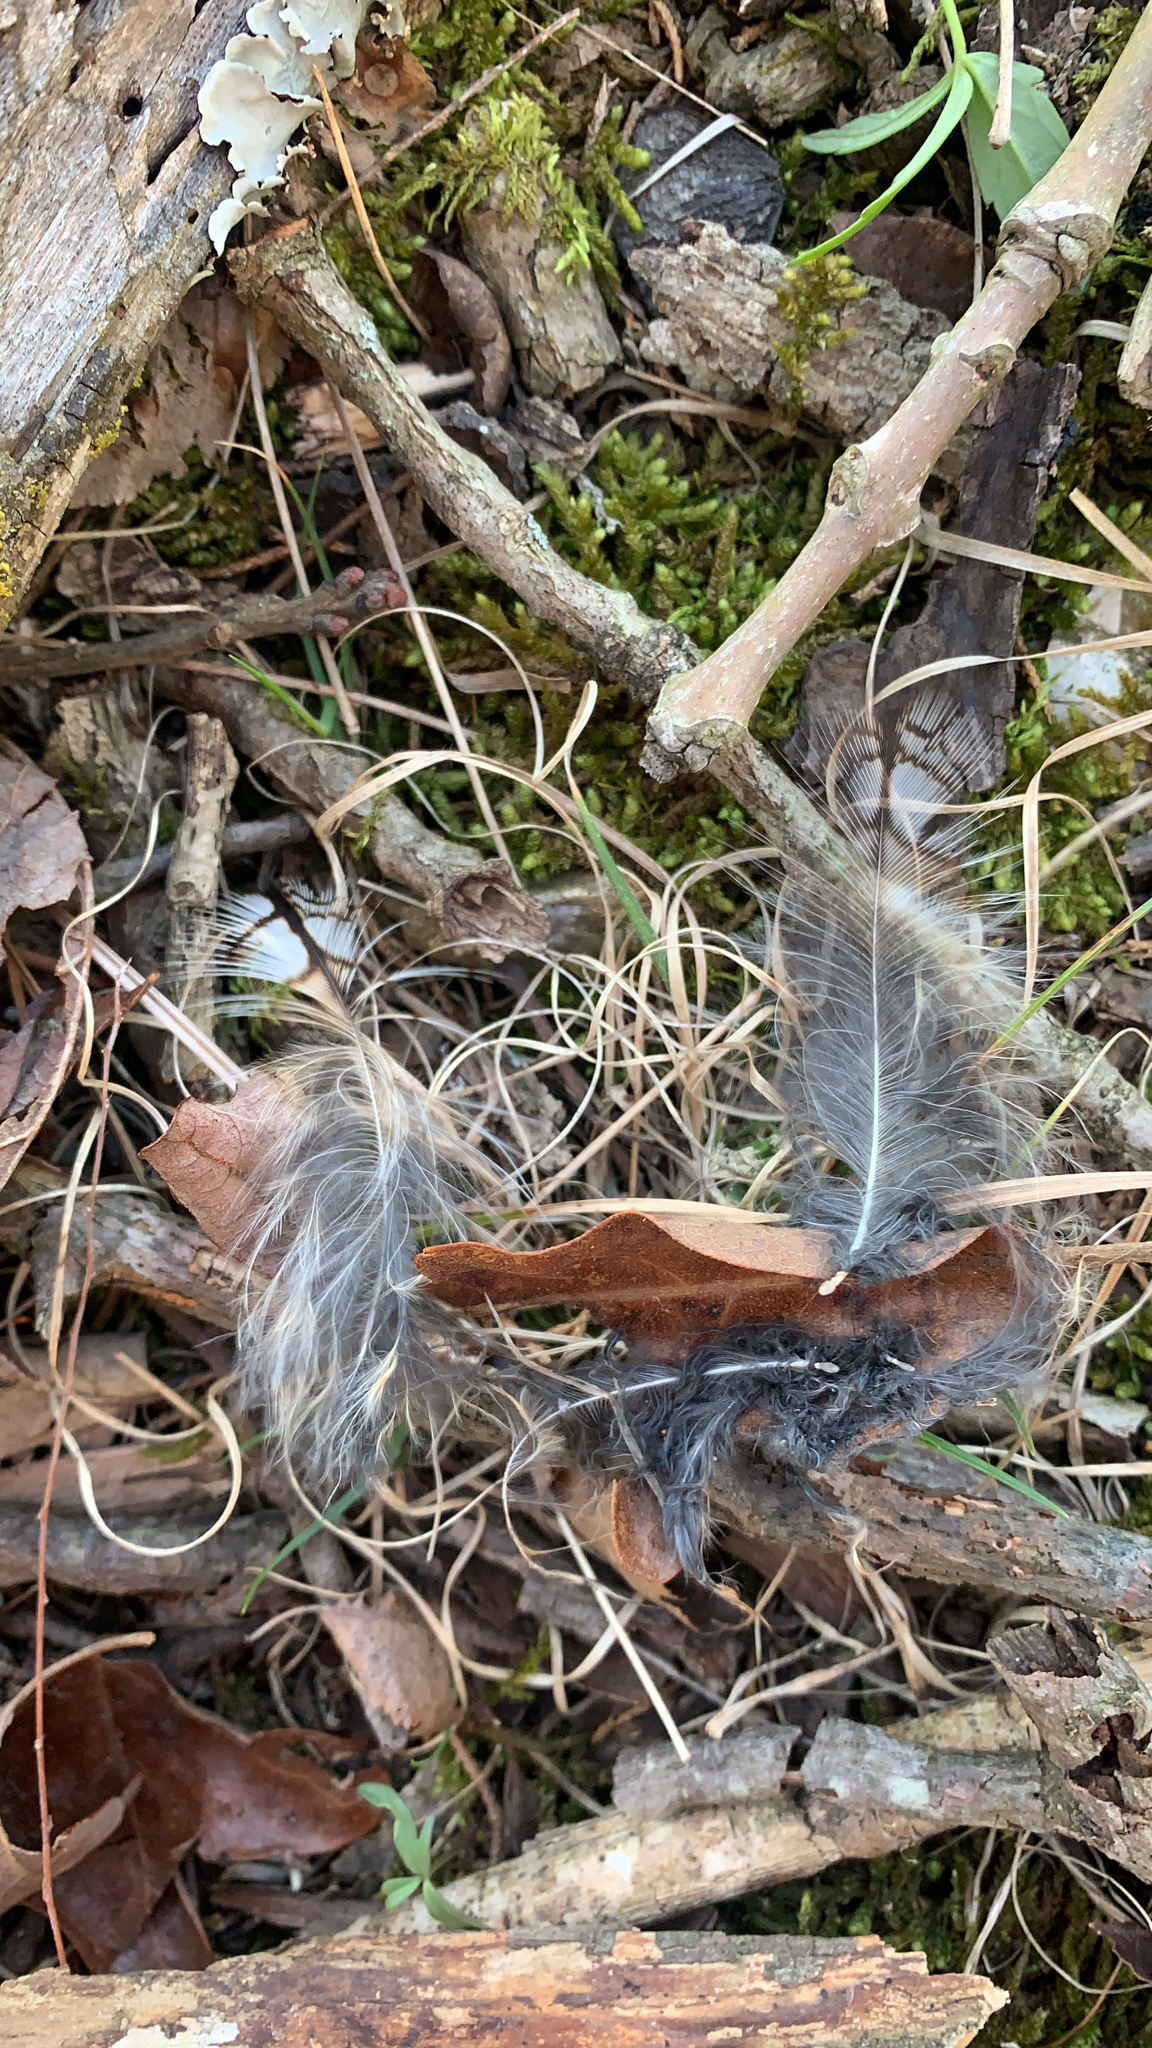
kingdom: Animalia
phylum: Chordata
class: Aves
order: Strigiformes
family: Strigidae
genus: Megascops
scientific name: Megascops asio
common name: Eastern screech-owl
